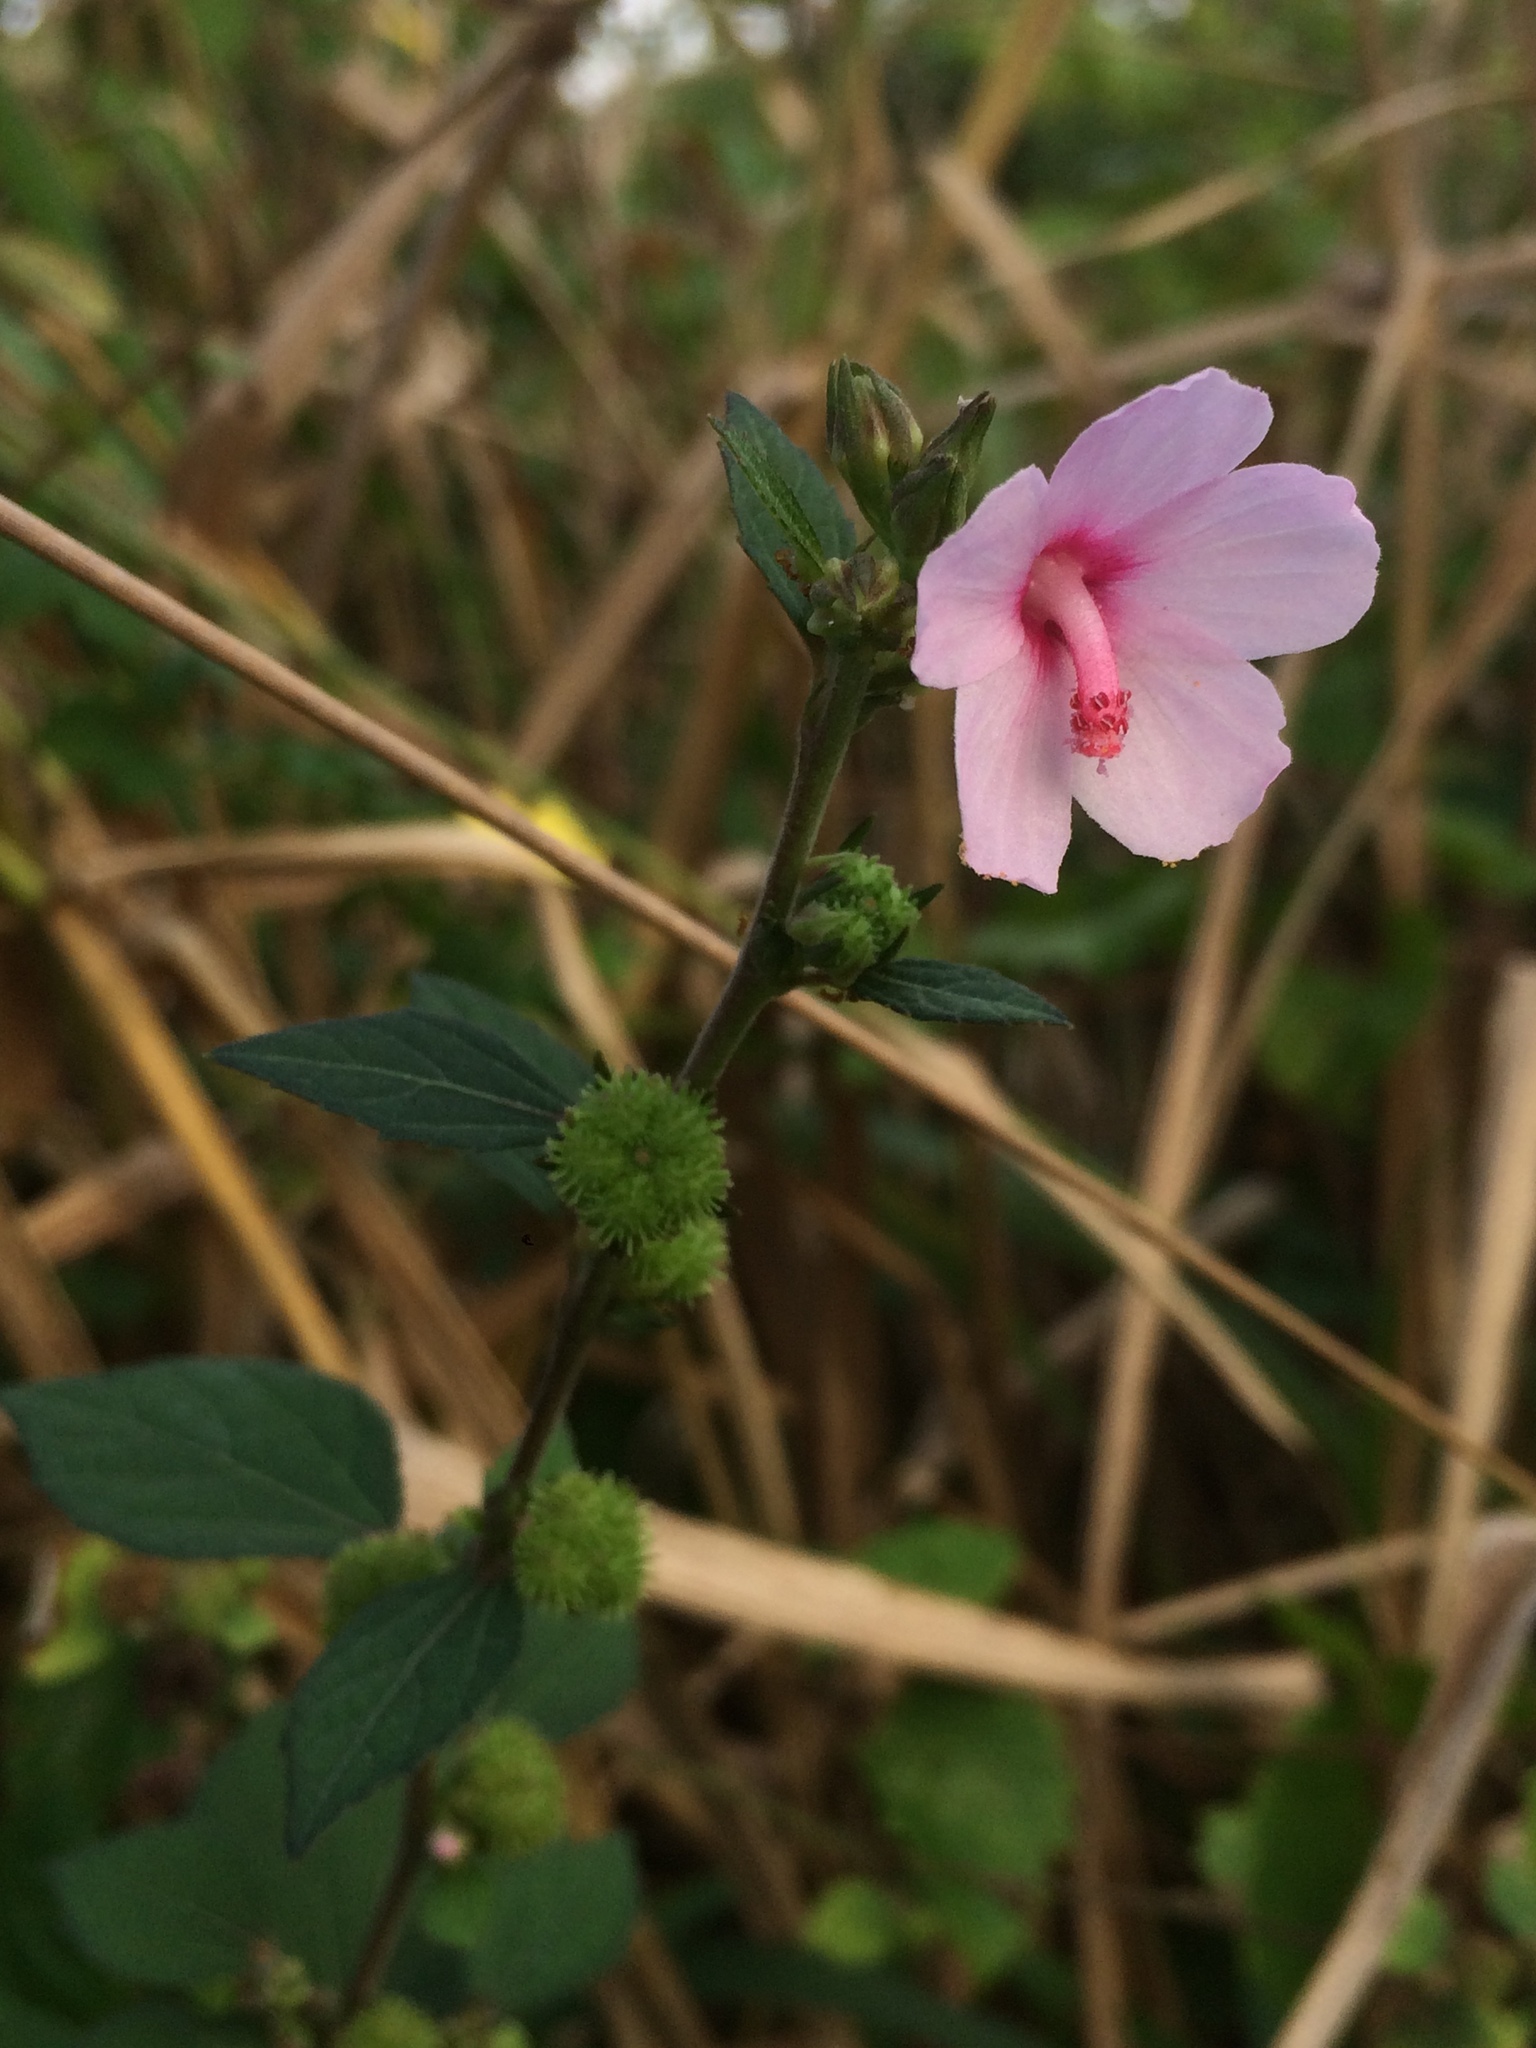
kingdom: Plantae
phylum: Tracheophyta
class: Magnoliopsida
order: Malvales
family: Malvaceae
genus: Urena
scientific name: Urena lobata
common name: Caesarweed
